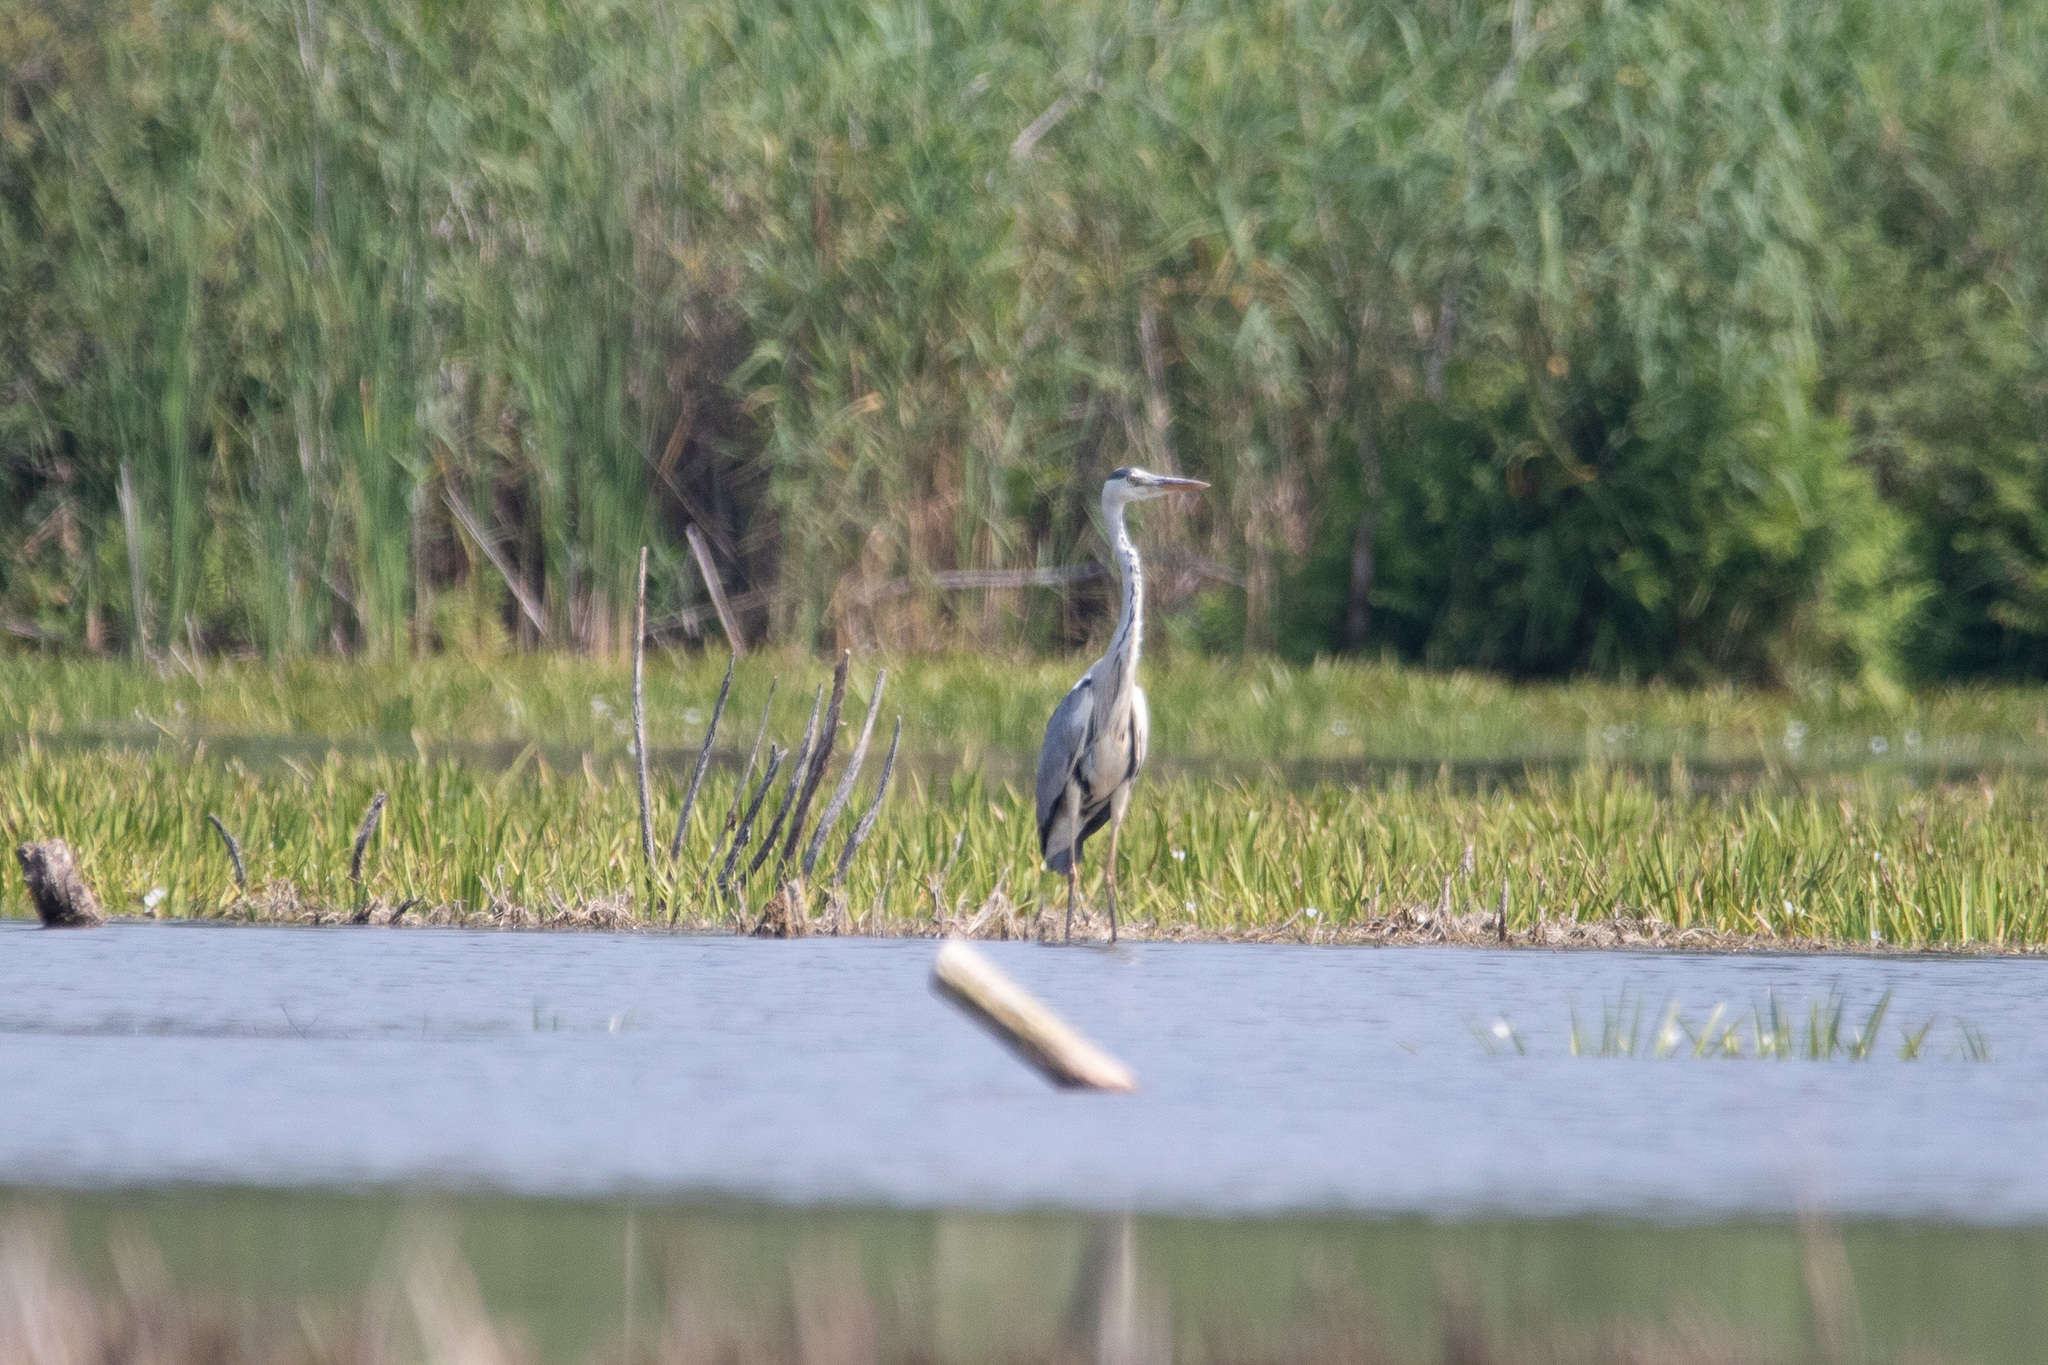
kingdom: Animalia
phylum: Chordata
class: Aves
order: Pelecaniformes
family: Ardeidae
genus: Ardea
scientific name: Ardea cinerea
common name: Grey heron
